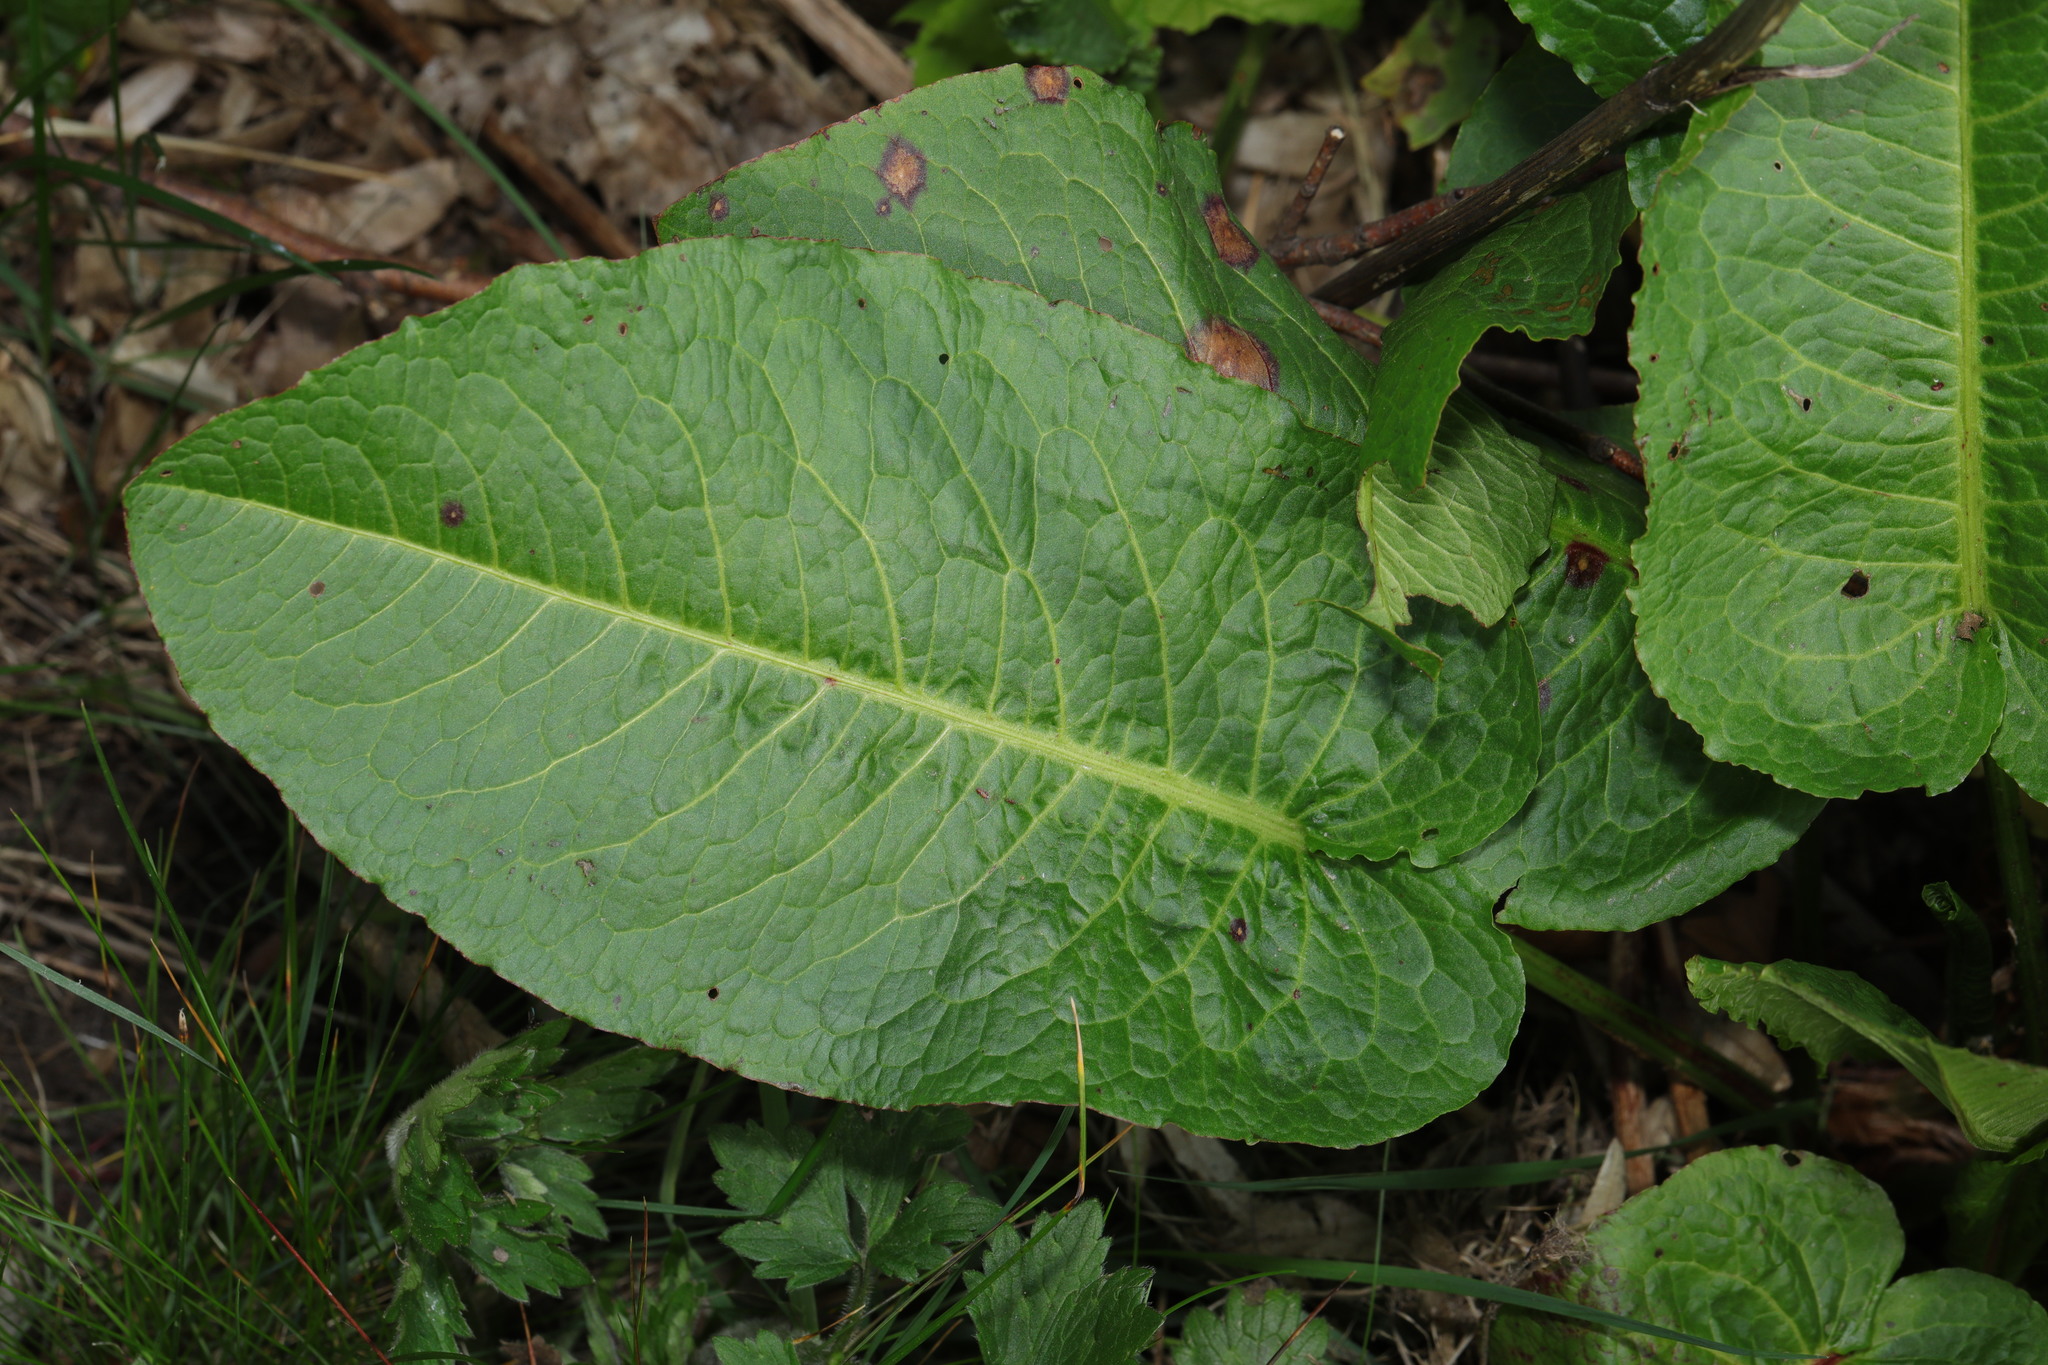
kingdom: Plantae
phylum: Tracheophyta
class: Magnoliopsida
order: Caryophyllales
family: Polygonaceae
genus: Rumex
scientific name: Rumex obtusifolius
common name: Bitter dock
